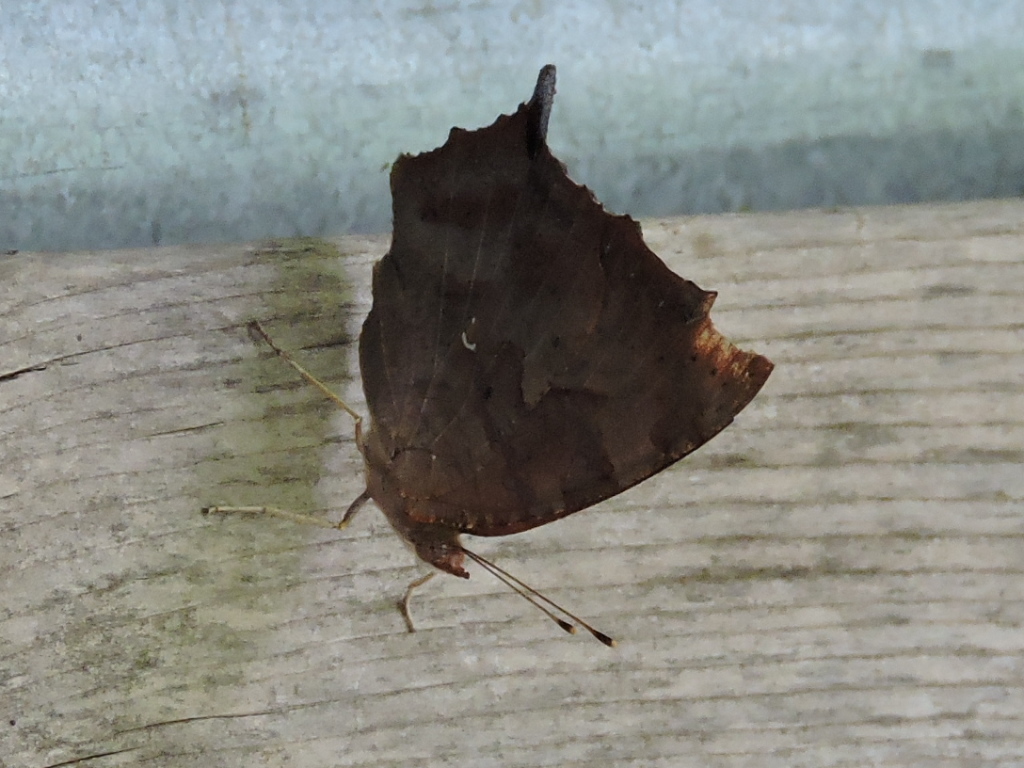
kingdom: Animalia
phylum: Arthropoda
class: Insecta
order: Lepidoptera
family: Nymphalidae
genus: Polygonia
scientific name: Polygonia interrogationis
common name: Question mark
